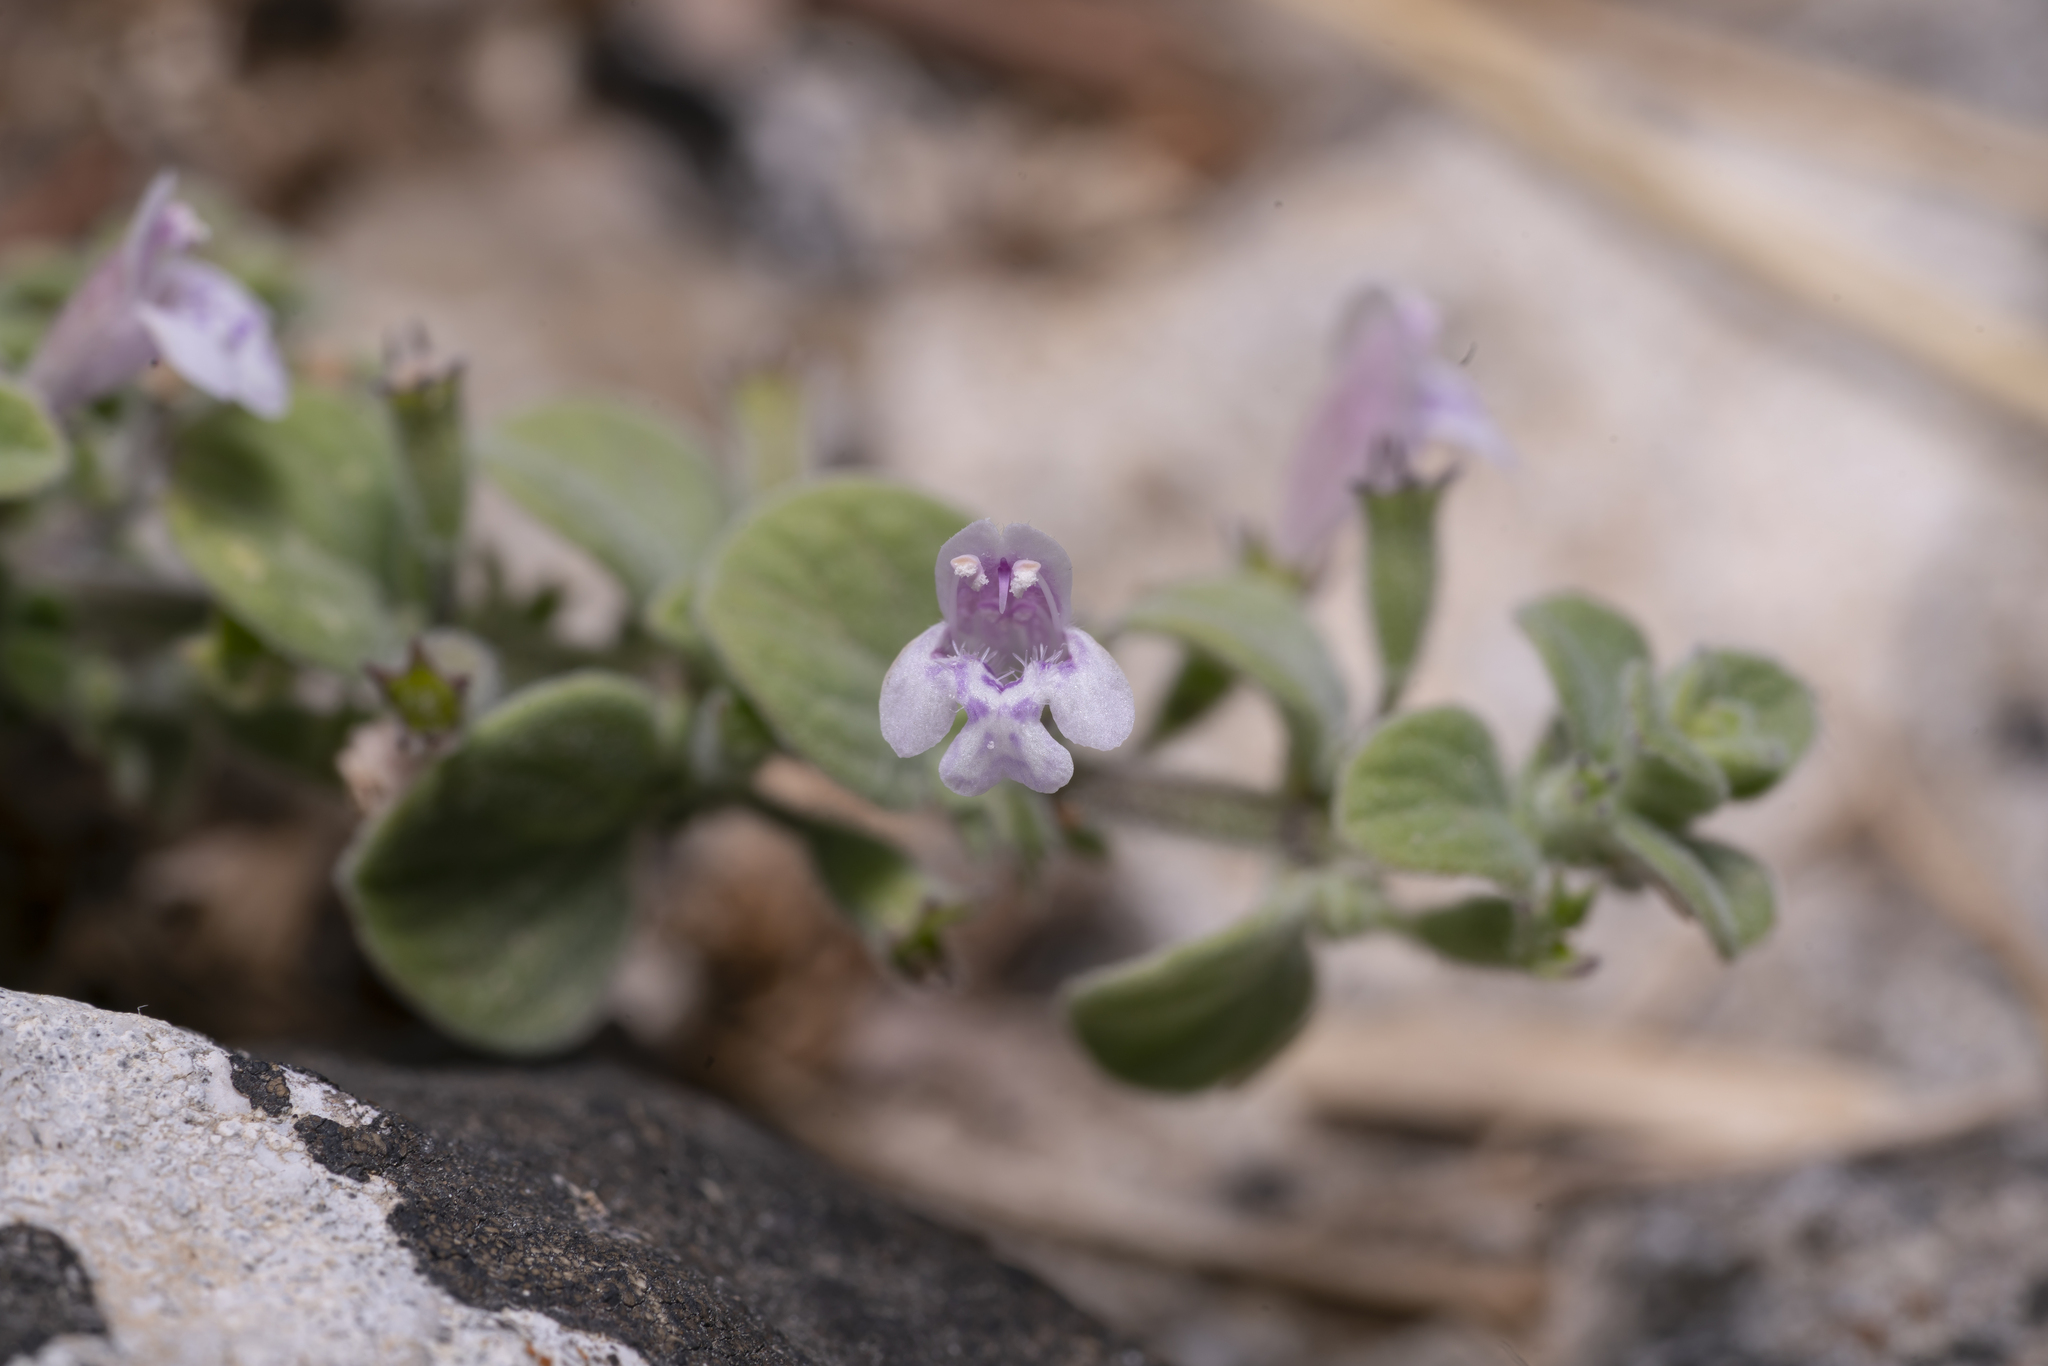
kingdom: Plantae
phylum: Tracheophyta
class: Magnoliopsida
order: Lamiales
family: Lamiaceae
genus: Clinopodium
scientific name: Clinopodium brevifolium
